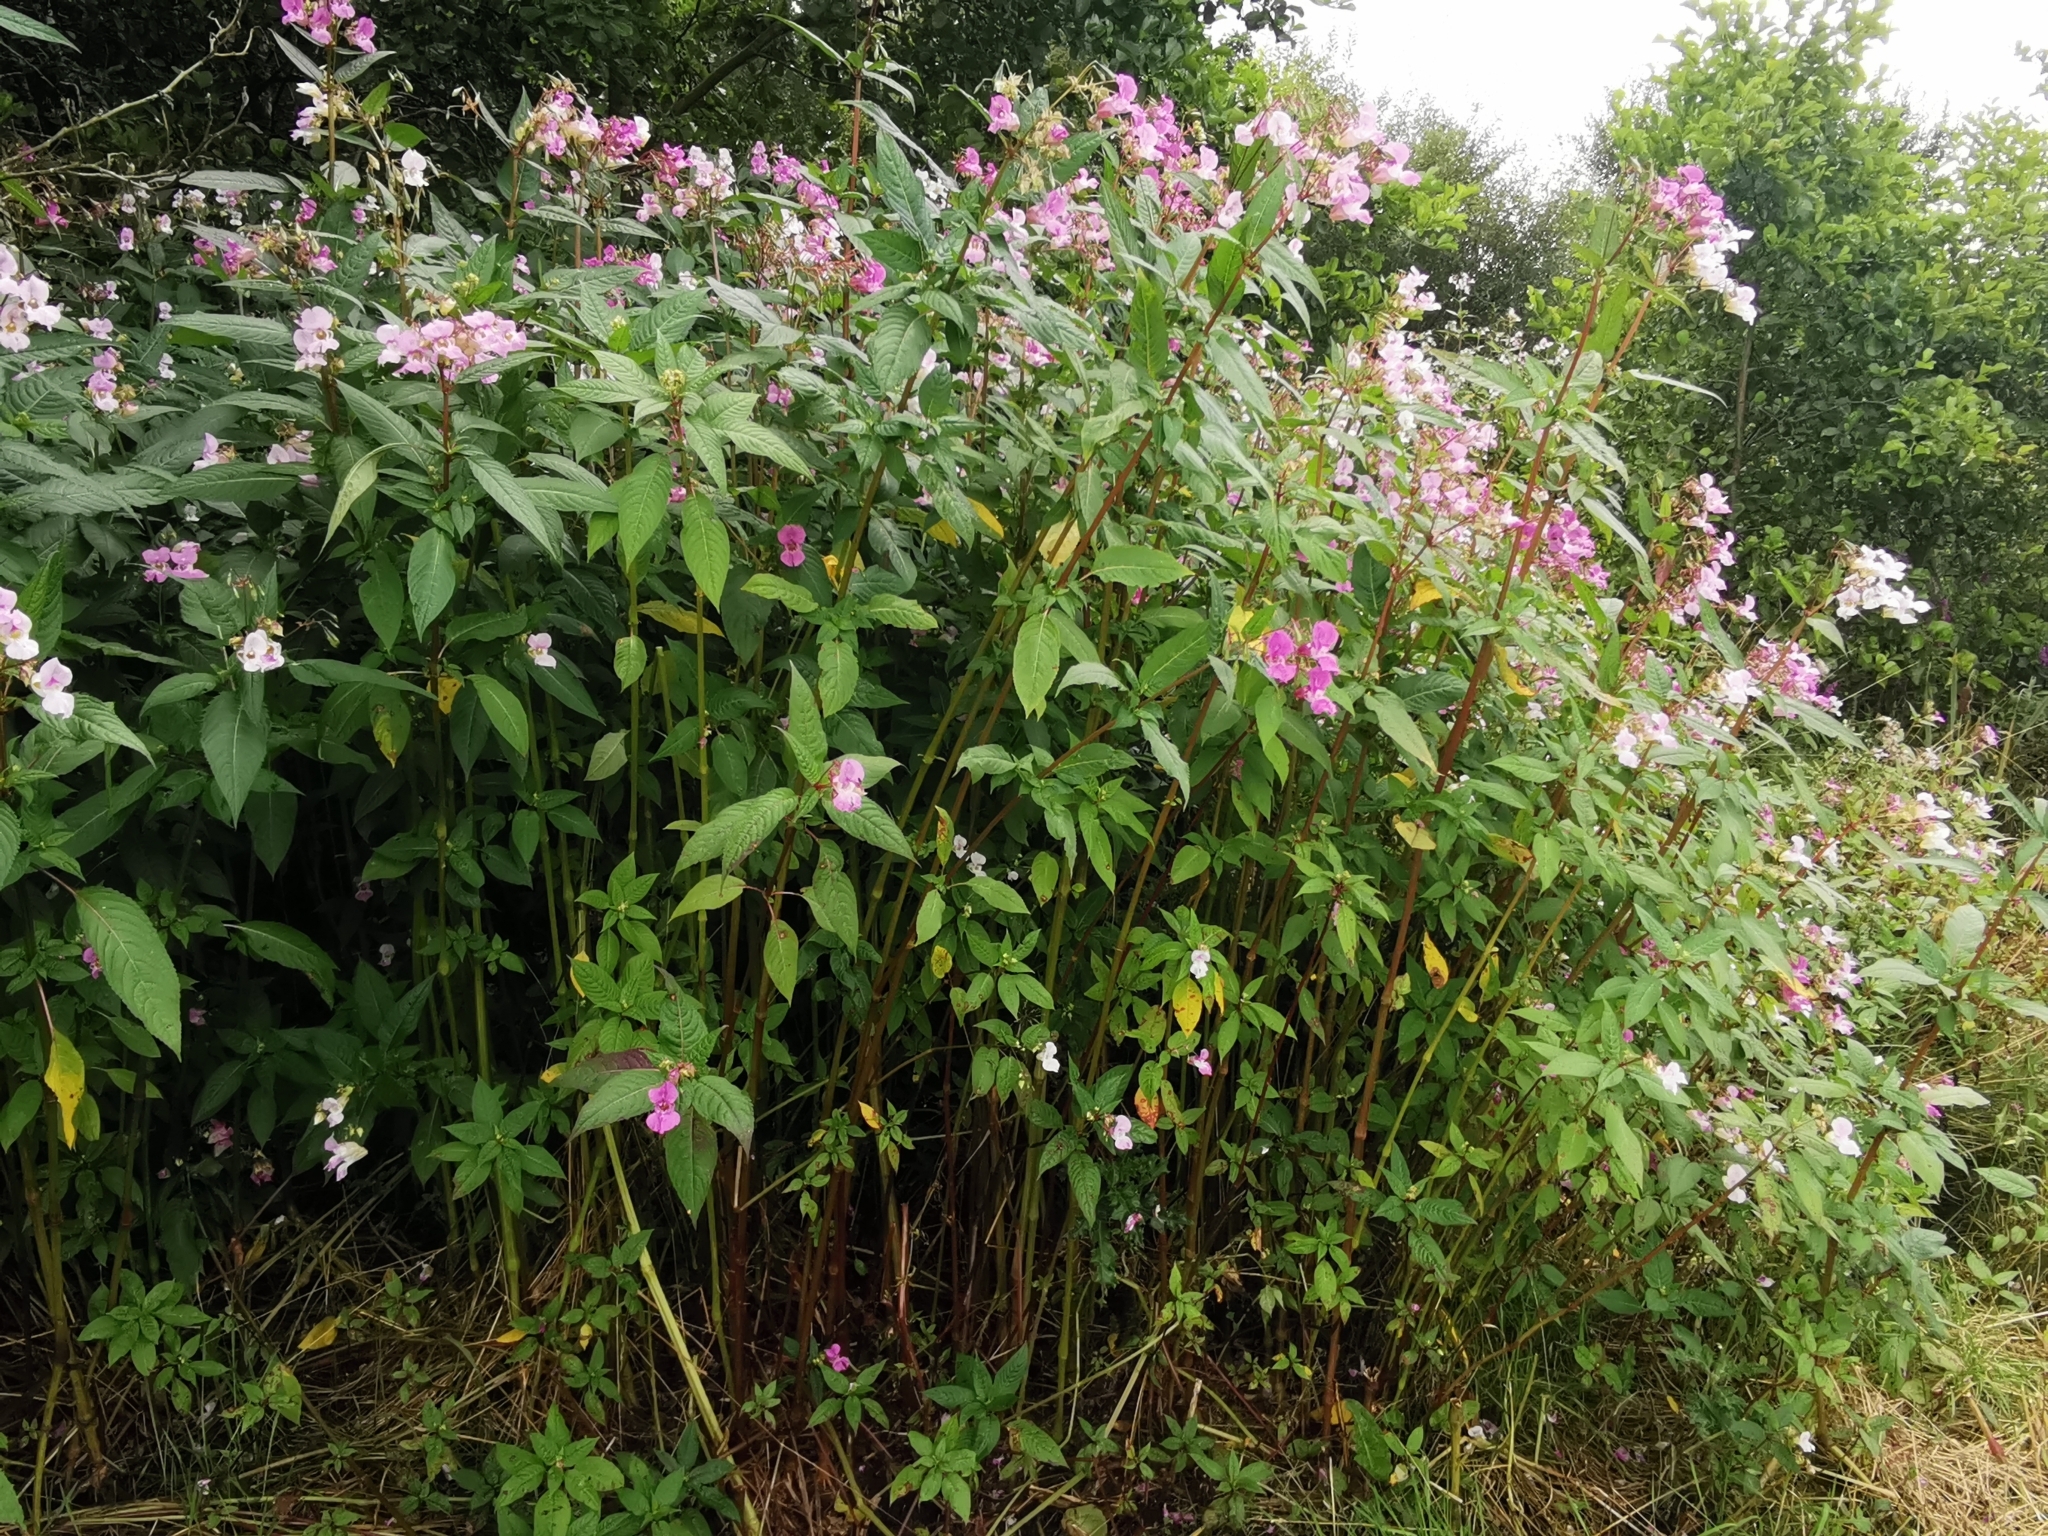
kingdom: Plantae
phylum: Tracheophyta
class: Magnoliopsida
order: Ericales
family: Balsaminaceae
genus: Impatiens
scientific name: Impatiens glandulifera
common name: Himalayan balsam
